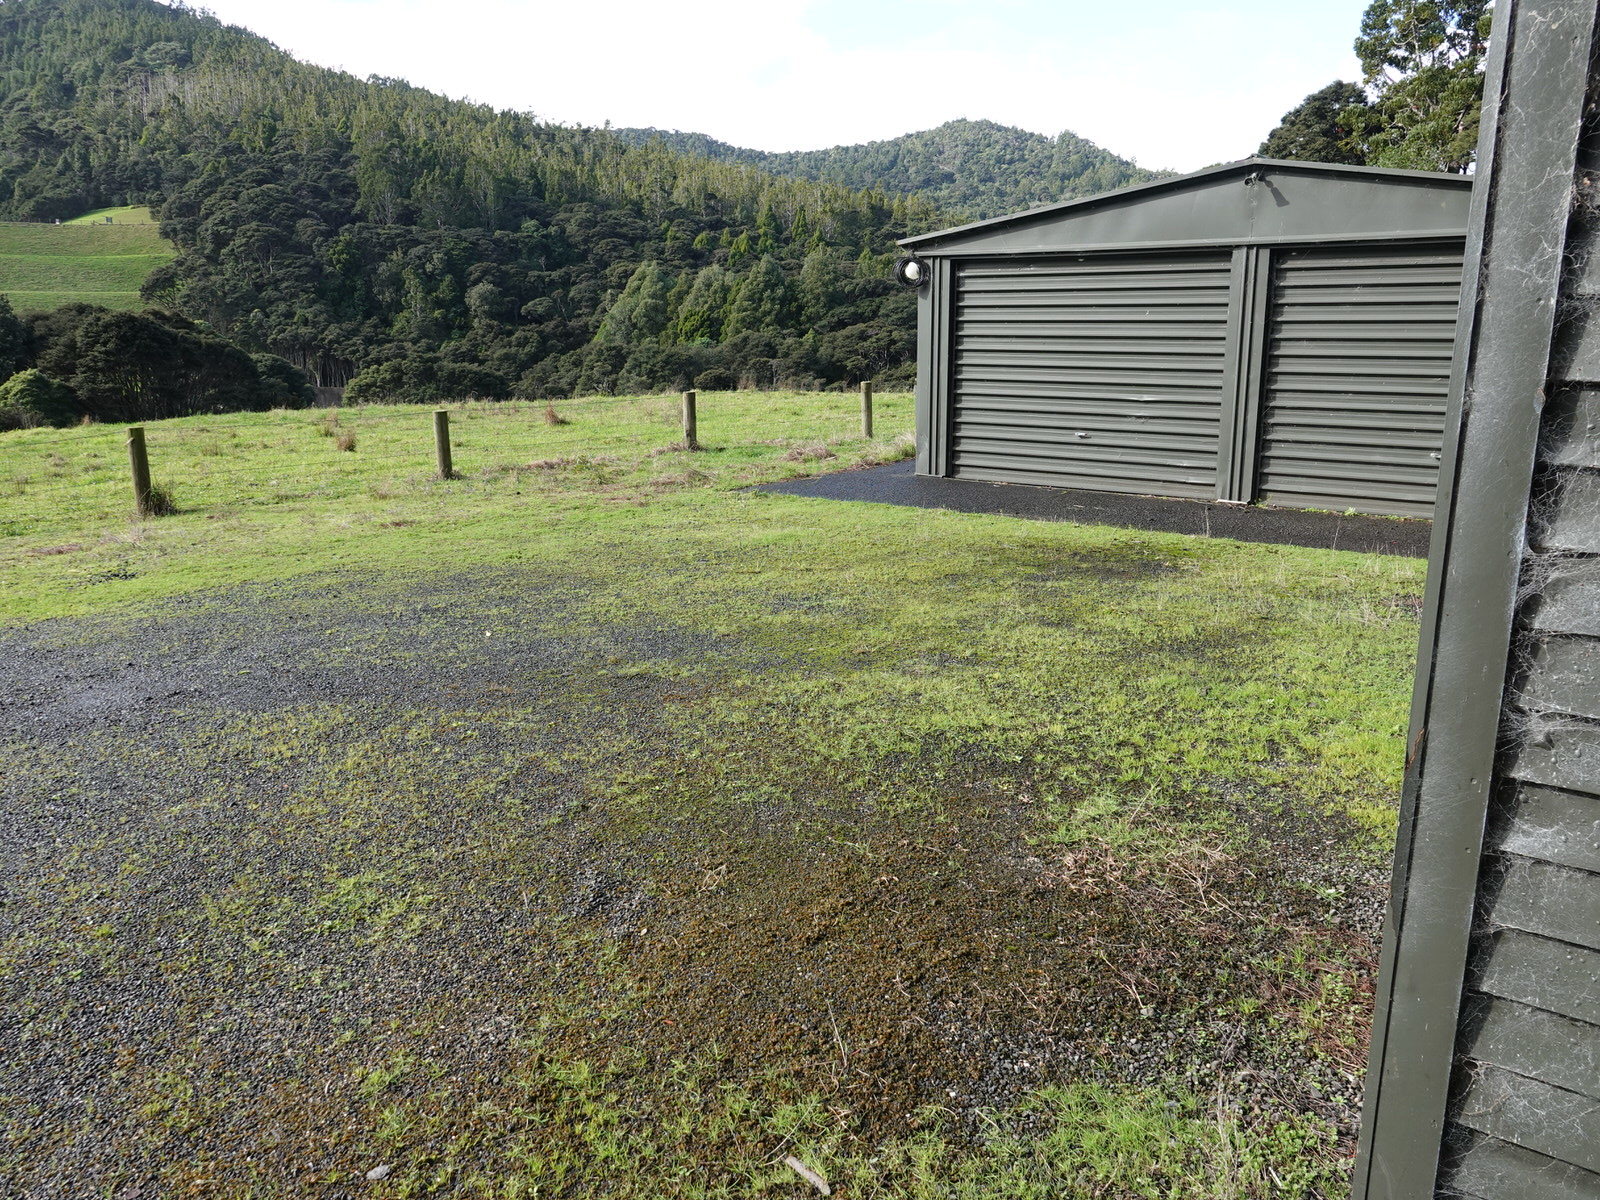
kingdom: Bacteria
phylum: Cyanobacteria
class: Cyanobacteriia
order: Cyanobacteriales
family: Nostocaceae
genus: Nostoc
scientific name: Nostoc commune
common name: Star jelly
